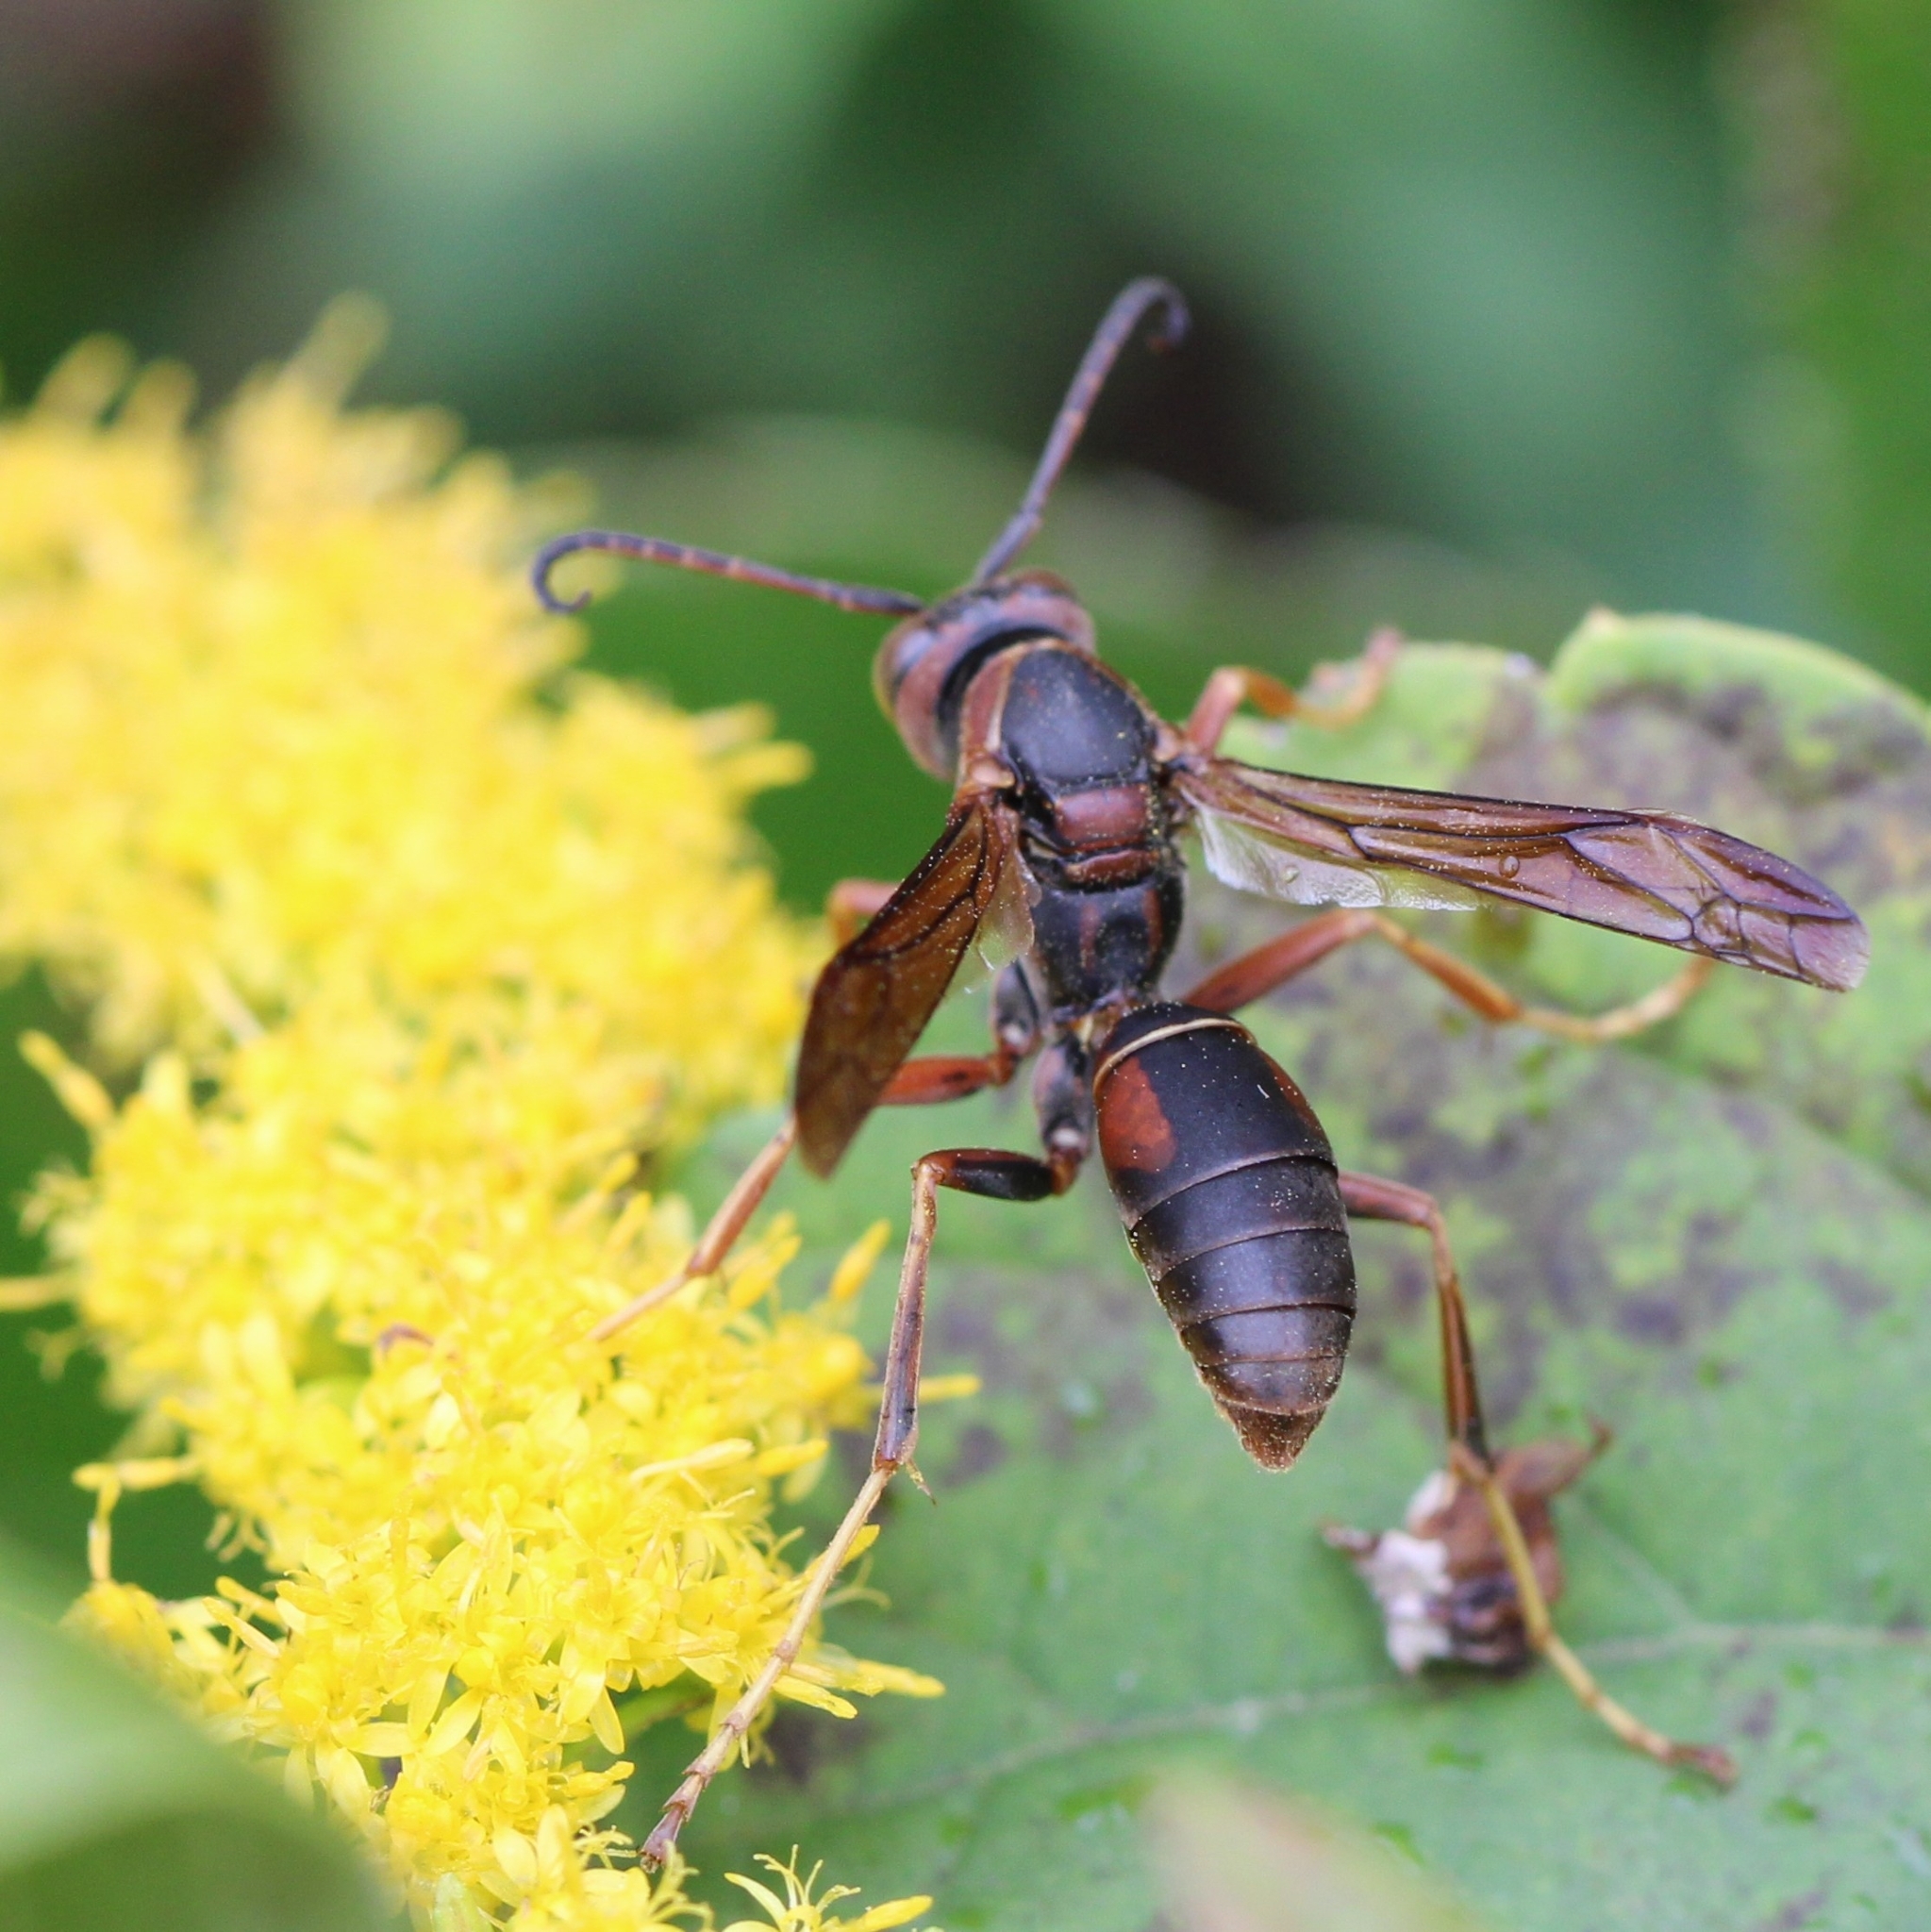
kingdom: Animalia
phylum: Arthropoda
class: Insecta
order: Hymenoptera
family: Eumenidae
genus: Polistes
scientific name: Polistes fuscatus
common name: Dark paper wasp
